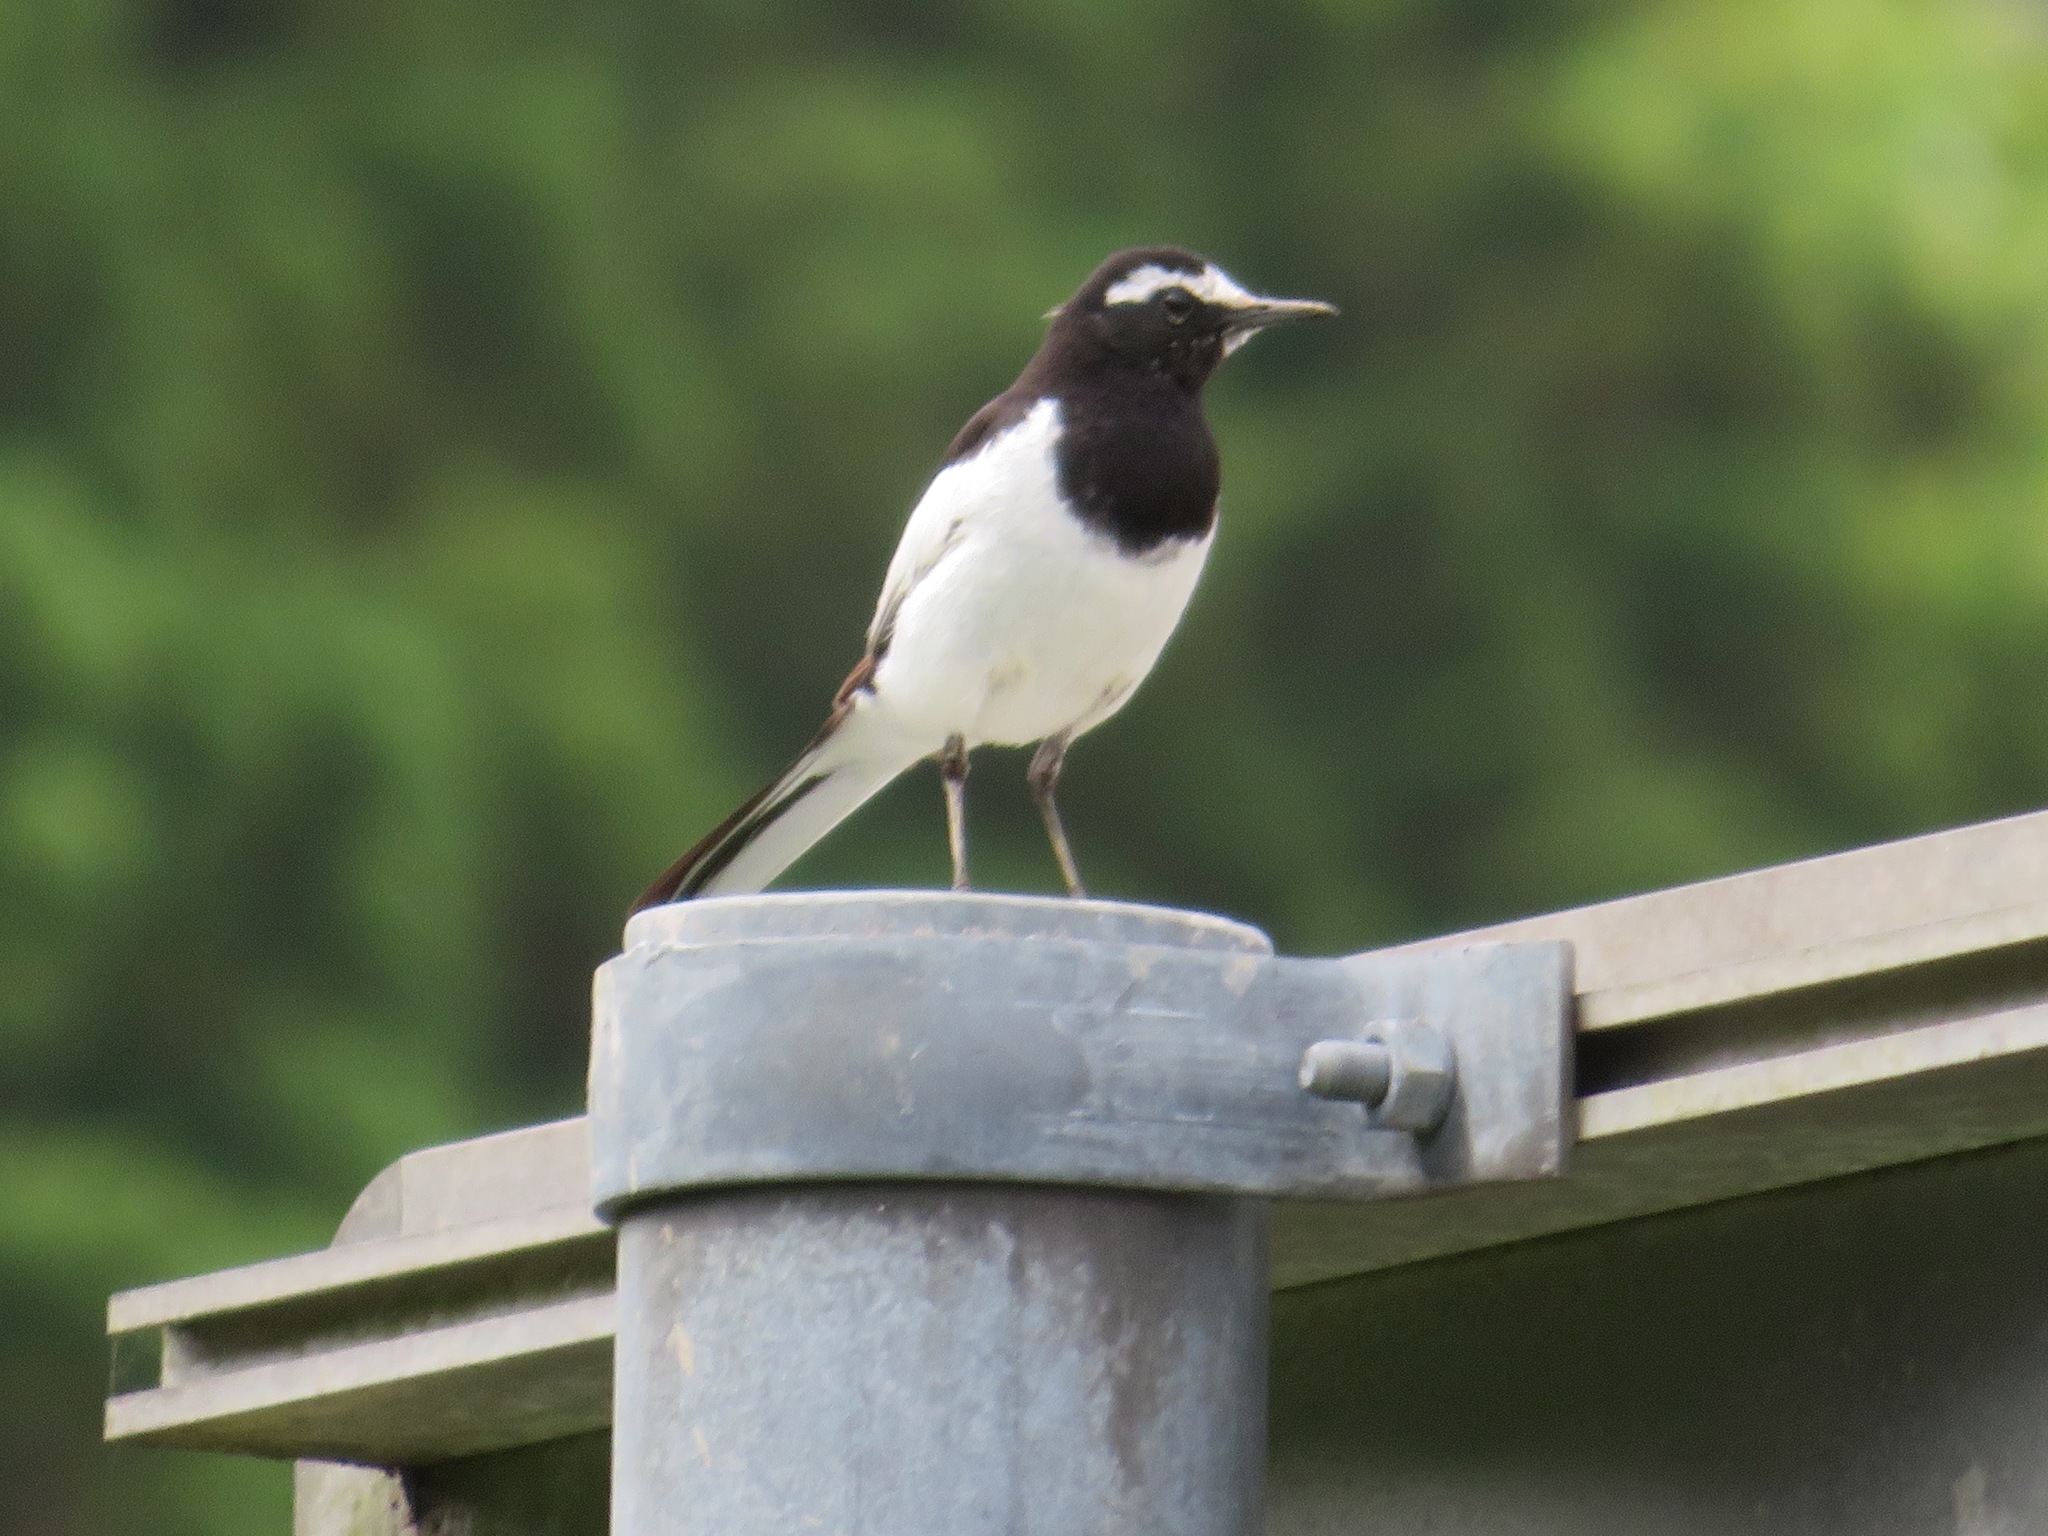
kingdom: Animalia
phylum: Chordata
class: Aves
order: Passeriformes
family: Motacillidae
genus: Motacilla
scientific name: Motacilla grandis
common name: Japanese wagtail
